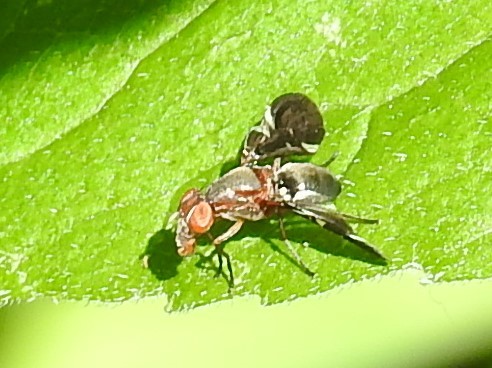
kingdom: Animalia
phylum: Arthropoda
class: Insecta
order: Diptera
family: Ulidiidae
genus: Delphinia
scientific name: Delphinia picta
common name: Common picture-winged fly
